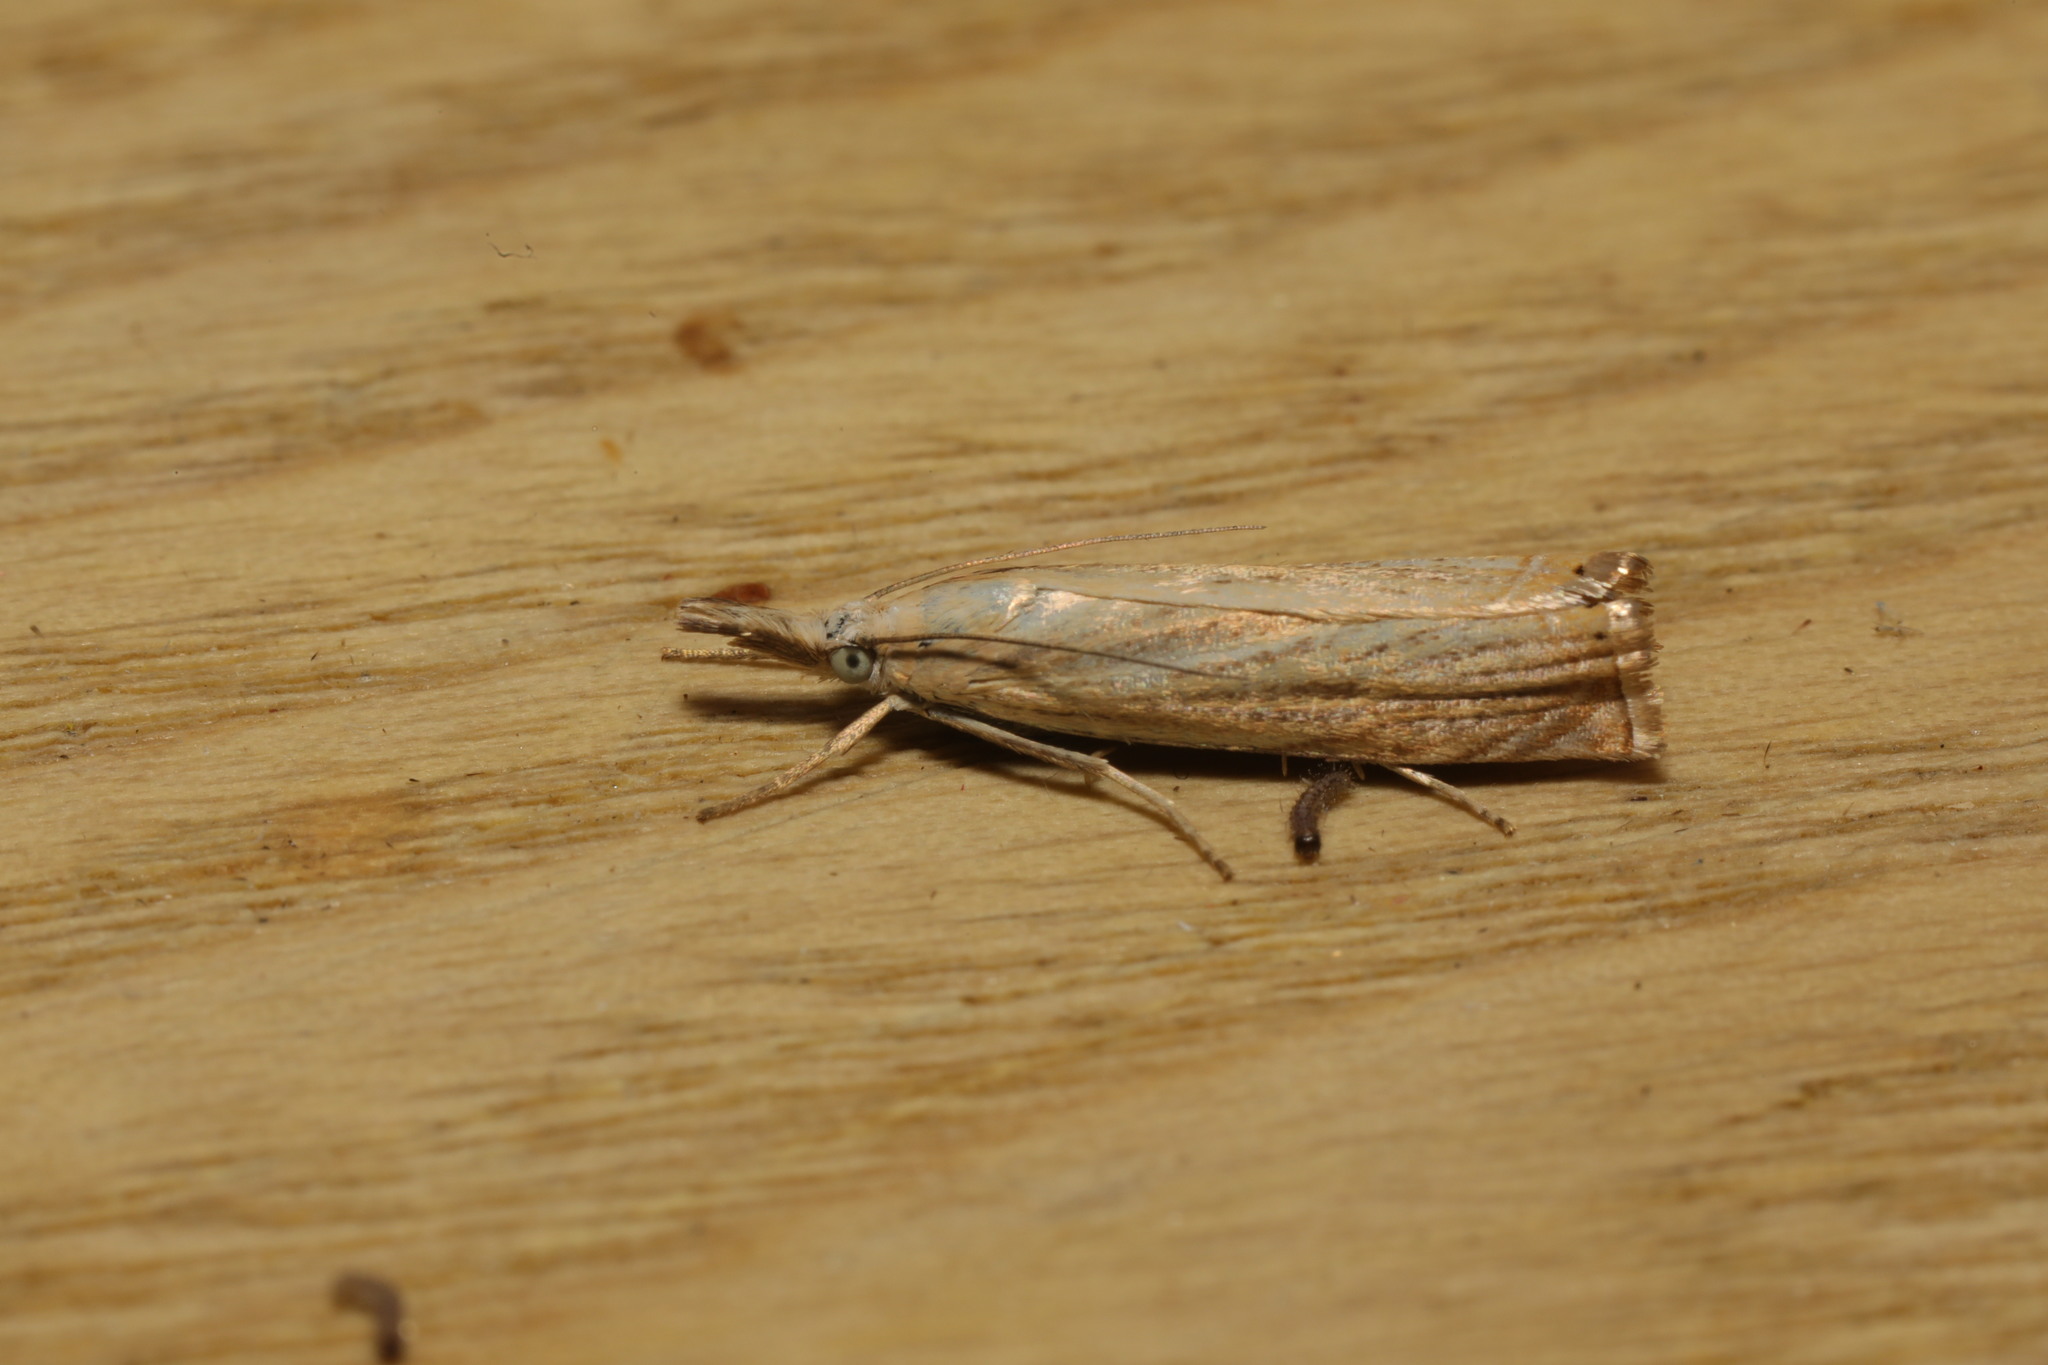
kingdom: Animalia
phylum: Arthropoda
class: Insecta
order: Lepidoptera
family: Crambidae
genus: Agriphila
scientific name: Agriphila straminella
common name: Straw grass-veneer
